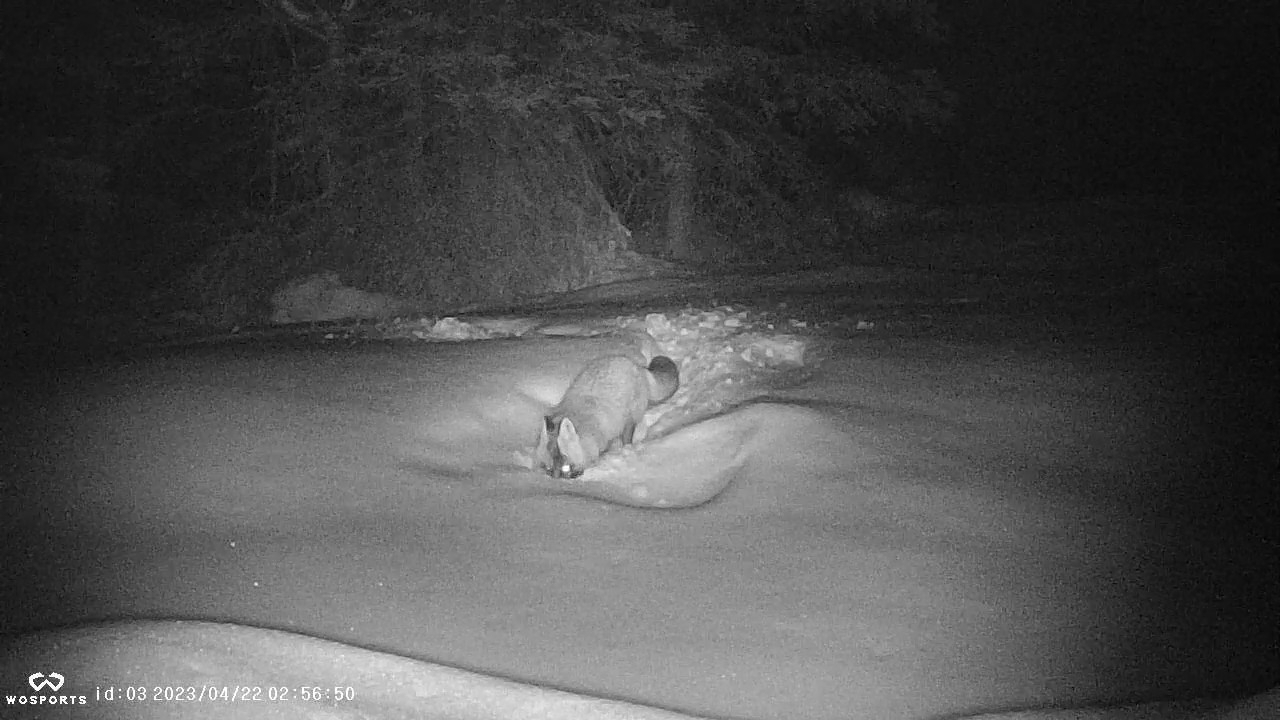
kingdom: Animalia
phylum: Chordata
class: Mammalia
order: Carnivora
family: Canidae
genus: Vulpes
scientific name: Vulpes vulpes
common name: Red fox
